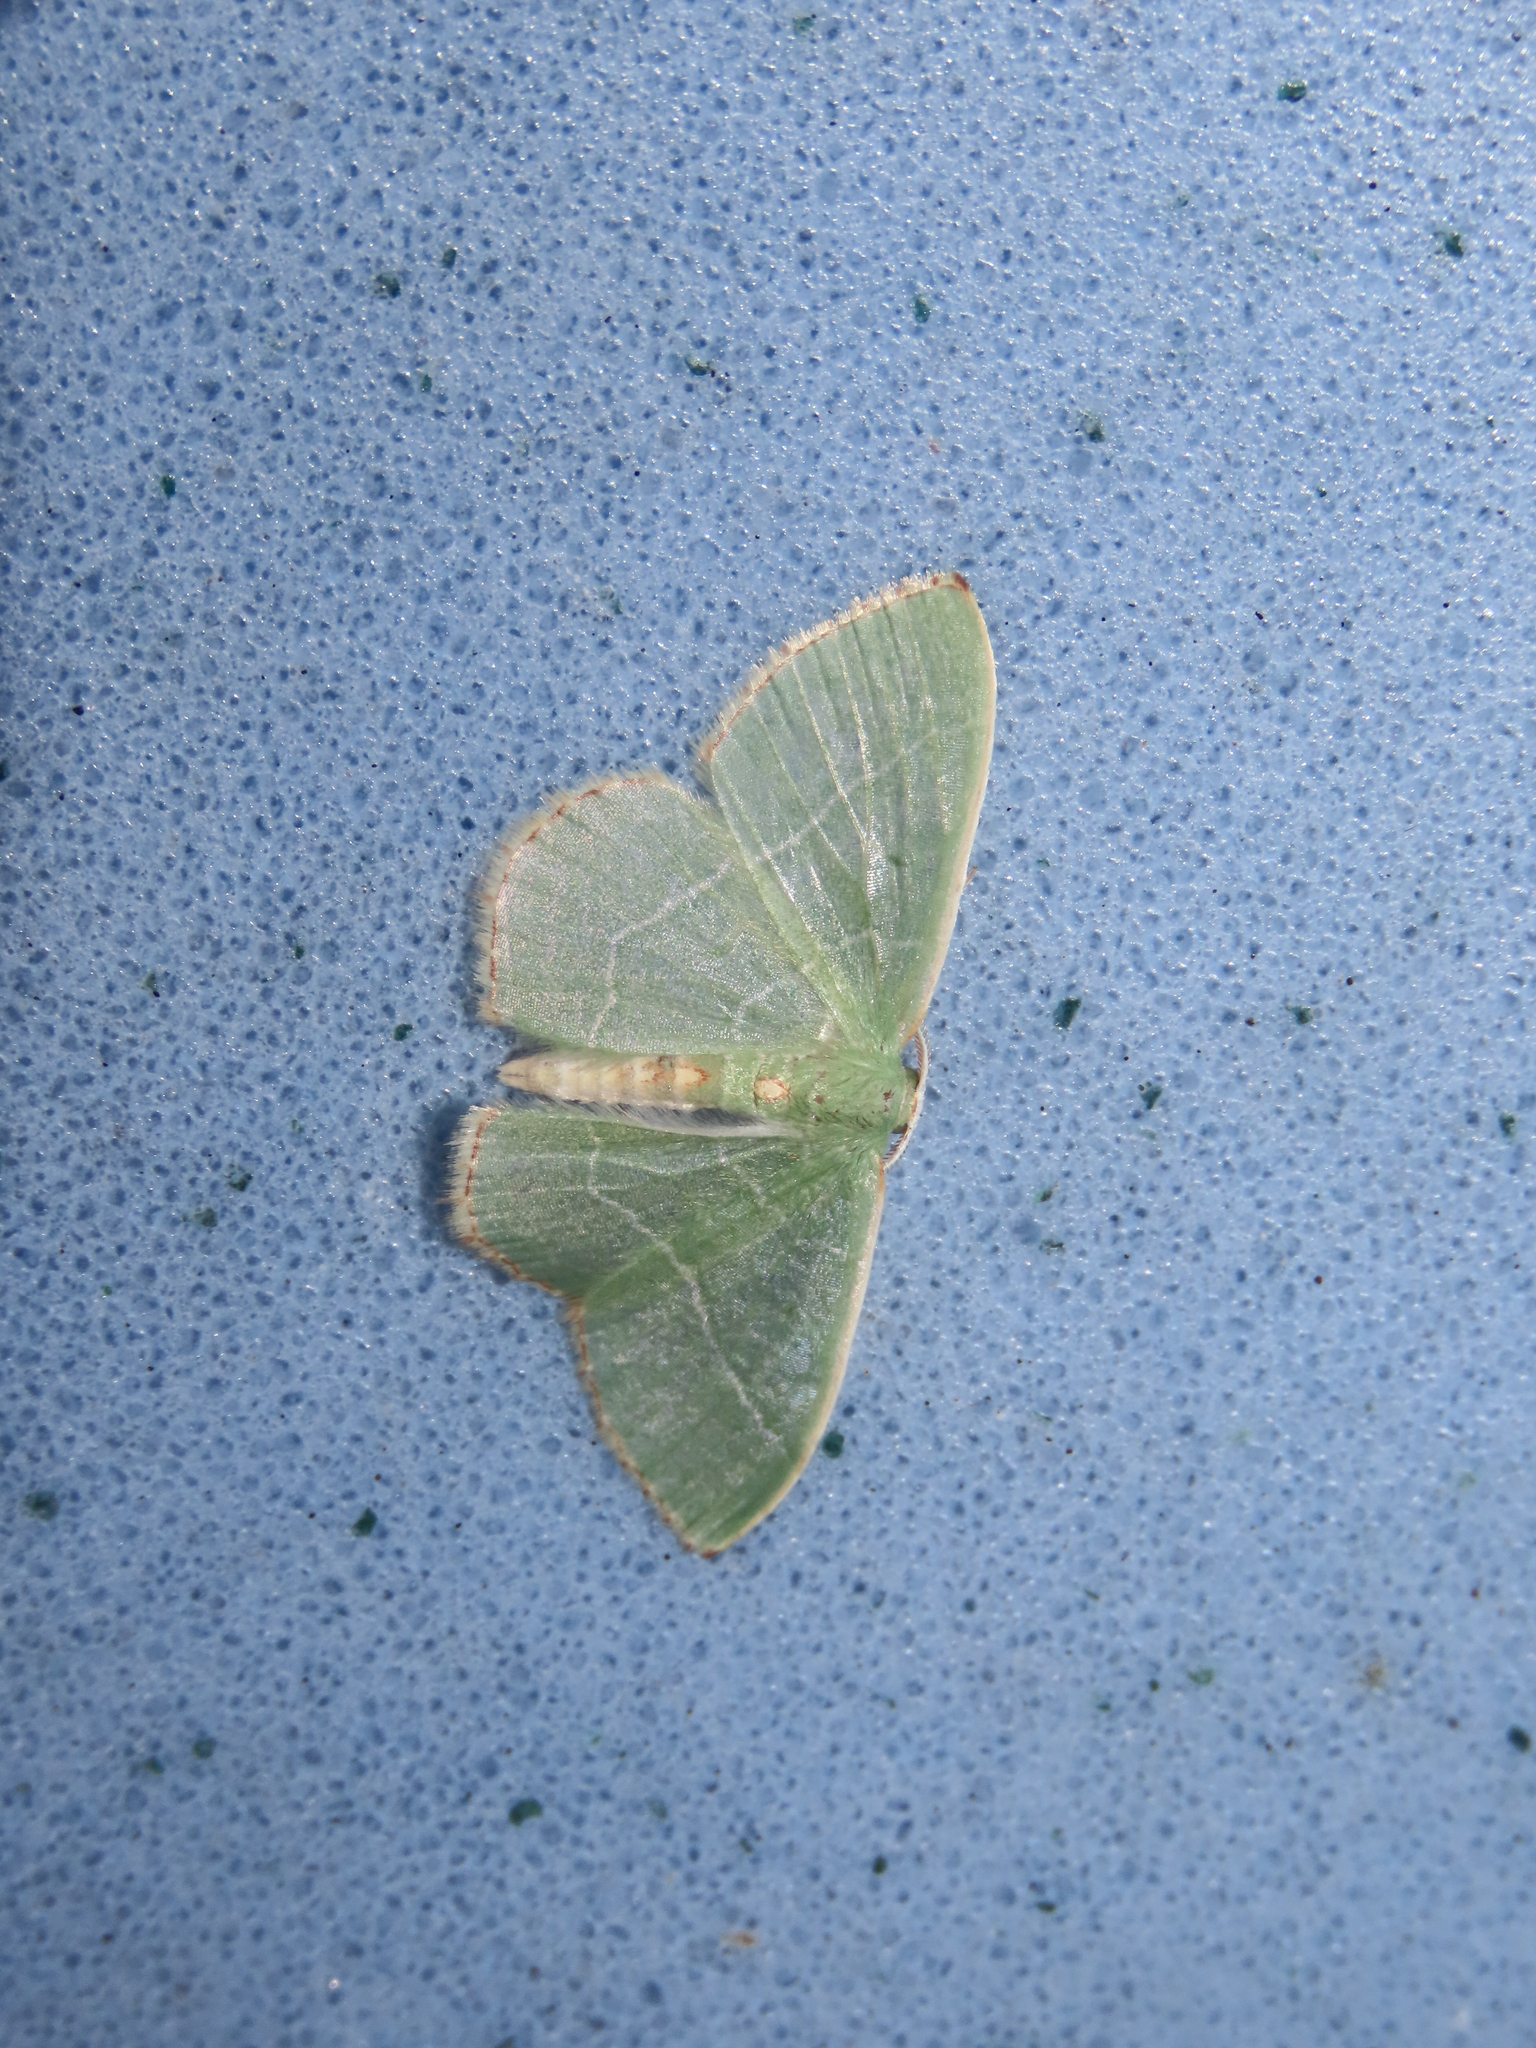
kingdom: Animalia
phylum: Arthropoda
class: Insecta
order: Lepidoptera
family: Geometridae
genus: Nemoria
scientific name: Nemoria bistriaria
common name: Red-fringed emerald
